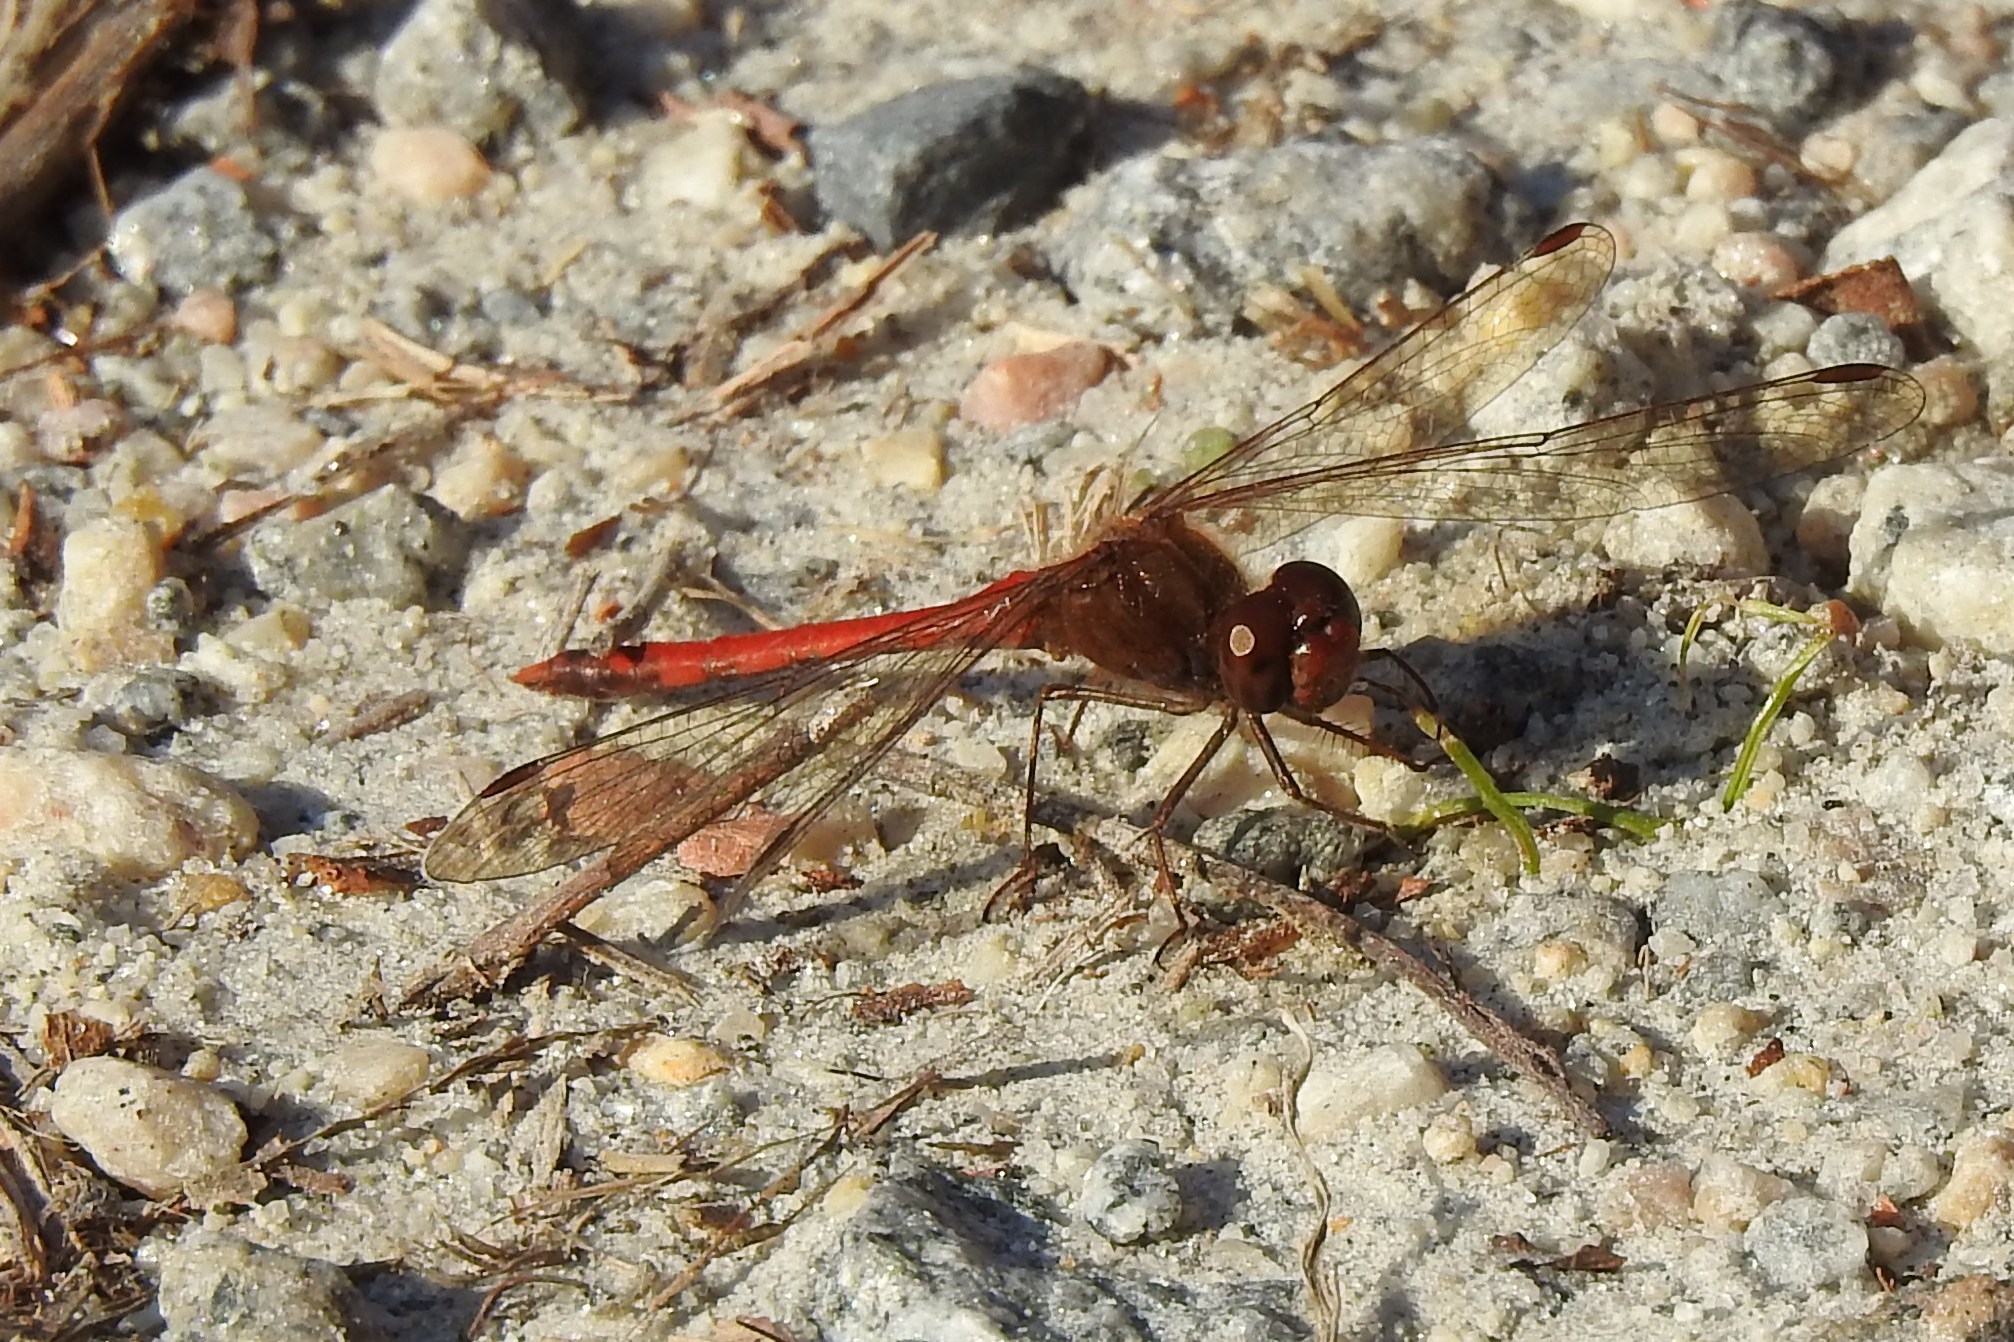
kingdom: Animalia
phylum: Arthropoda
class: Insecta
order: Odonata
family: Libellulidae
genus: Sympetrum
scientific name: Sympetrum vicinum
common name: Autumn meadowhawk
